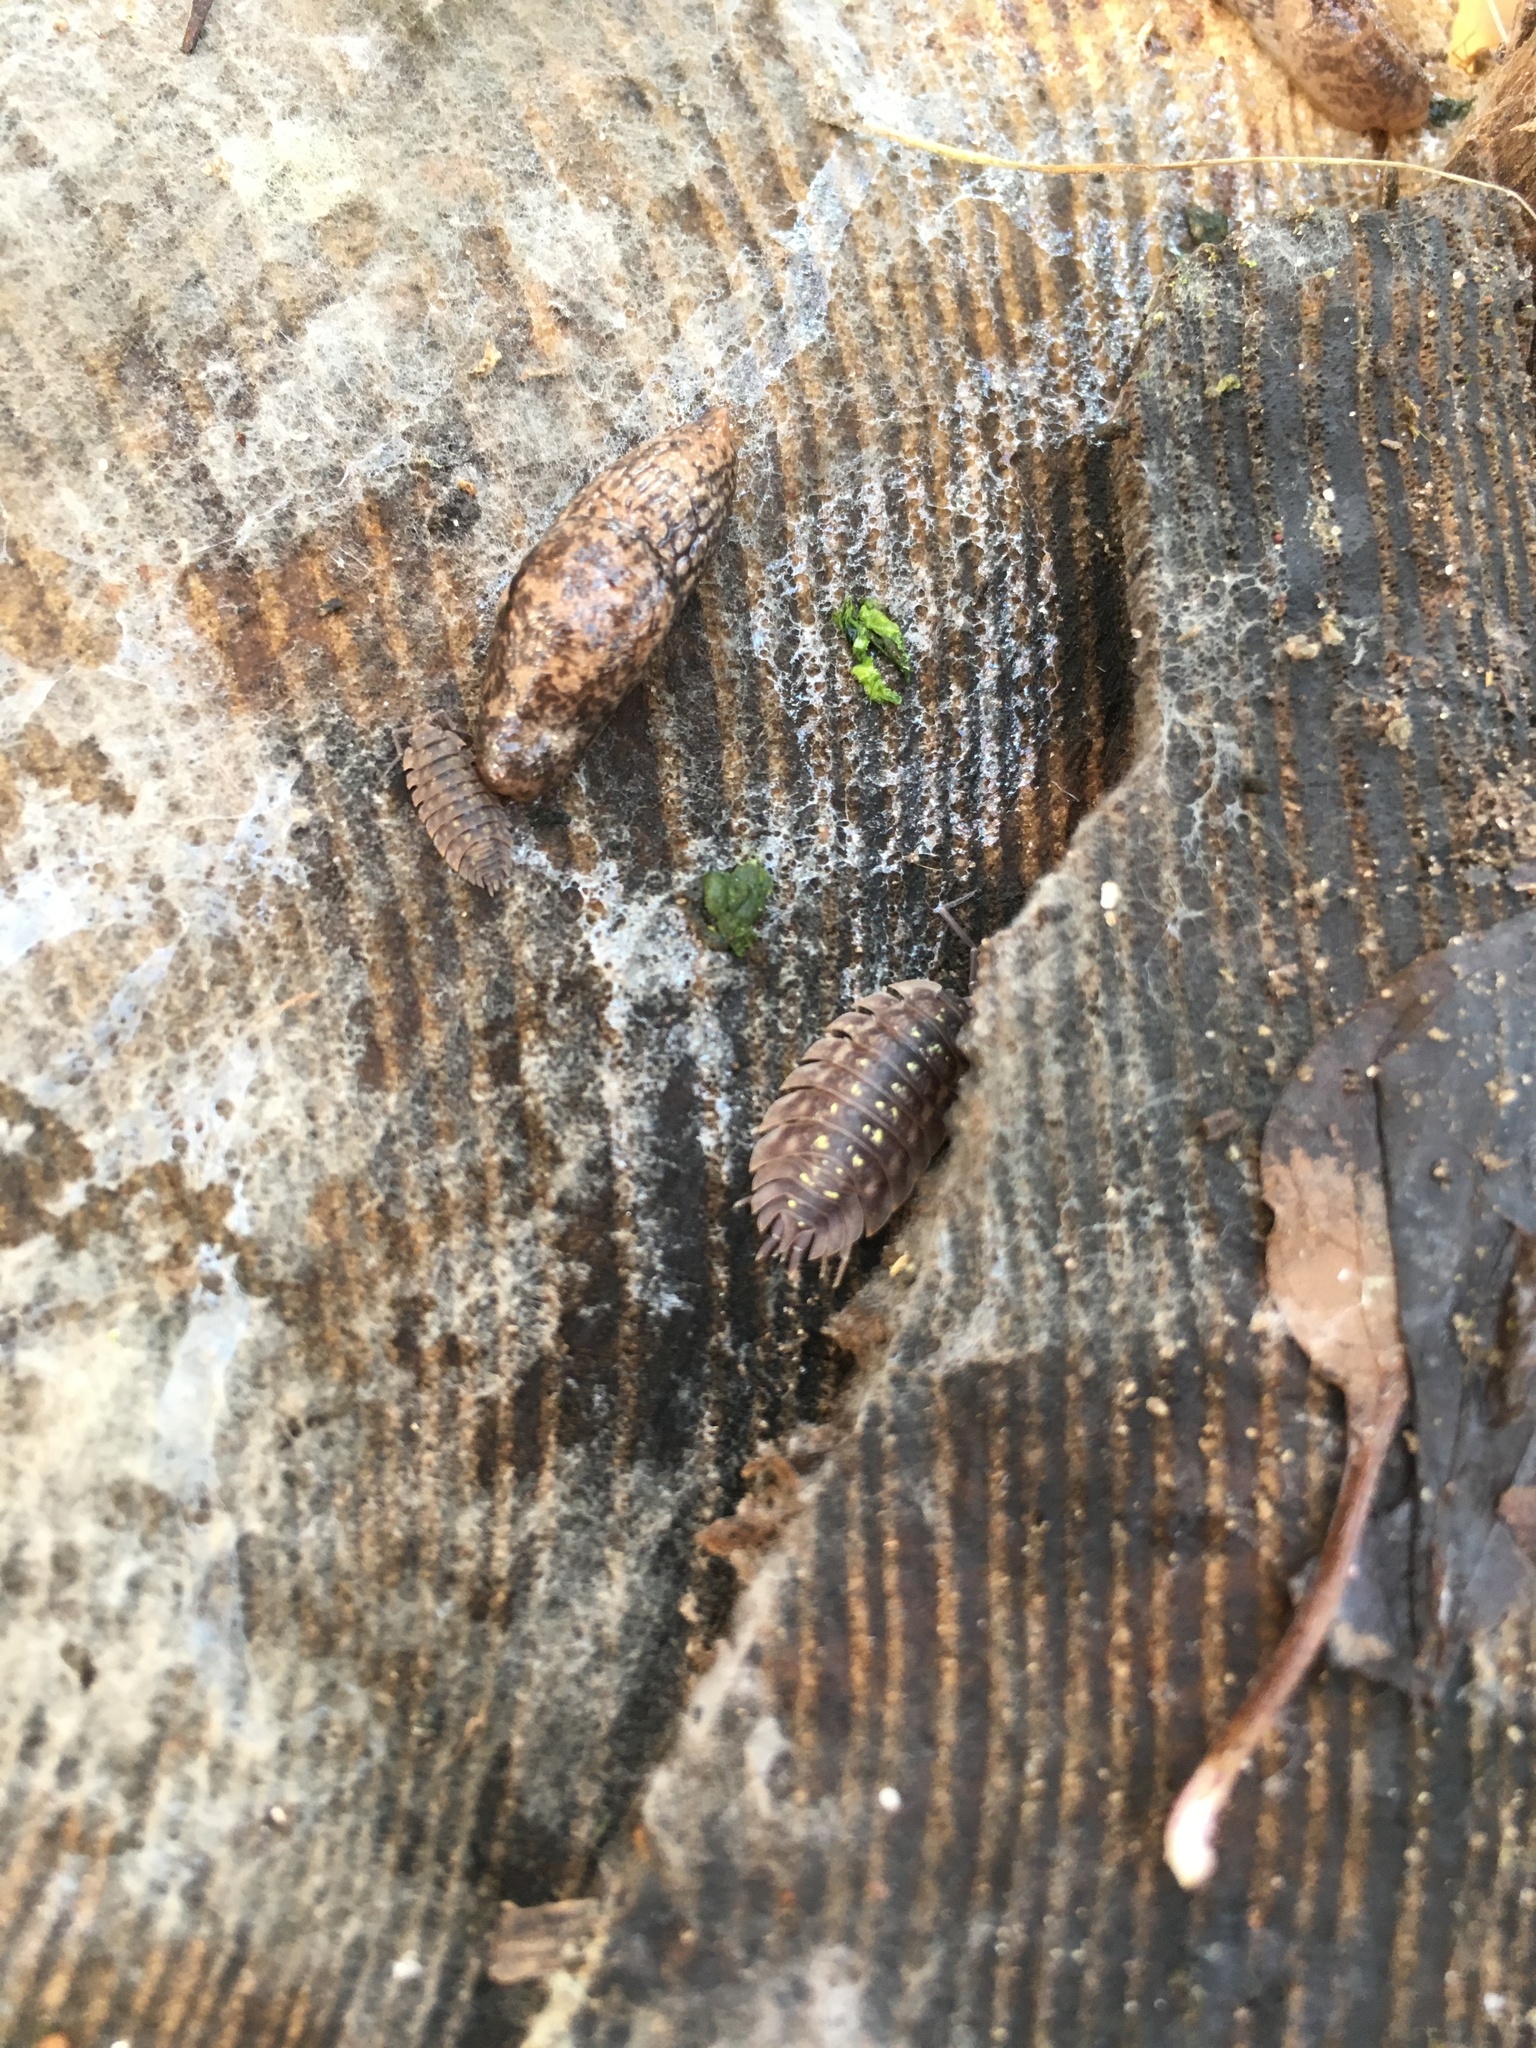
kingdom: Animalia
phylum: Arthropoda
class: Malacostraca
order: Isopoda
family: Porcellionidae
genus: Porcellio
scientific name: Porcellio spinicornis
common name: Painted woodlouse
